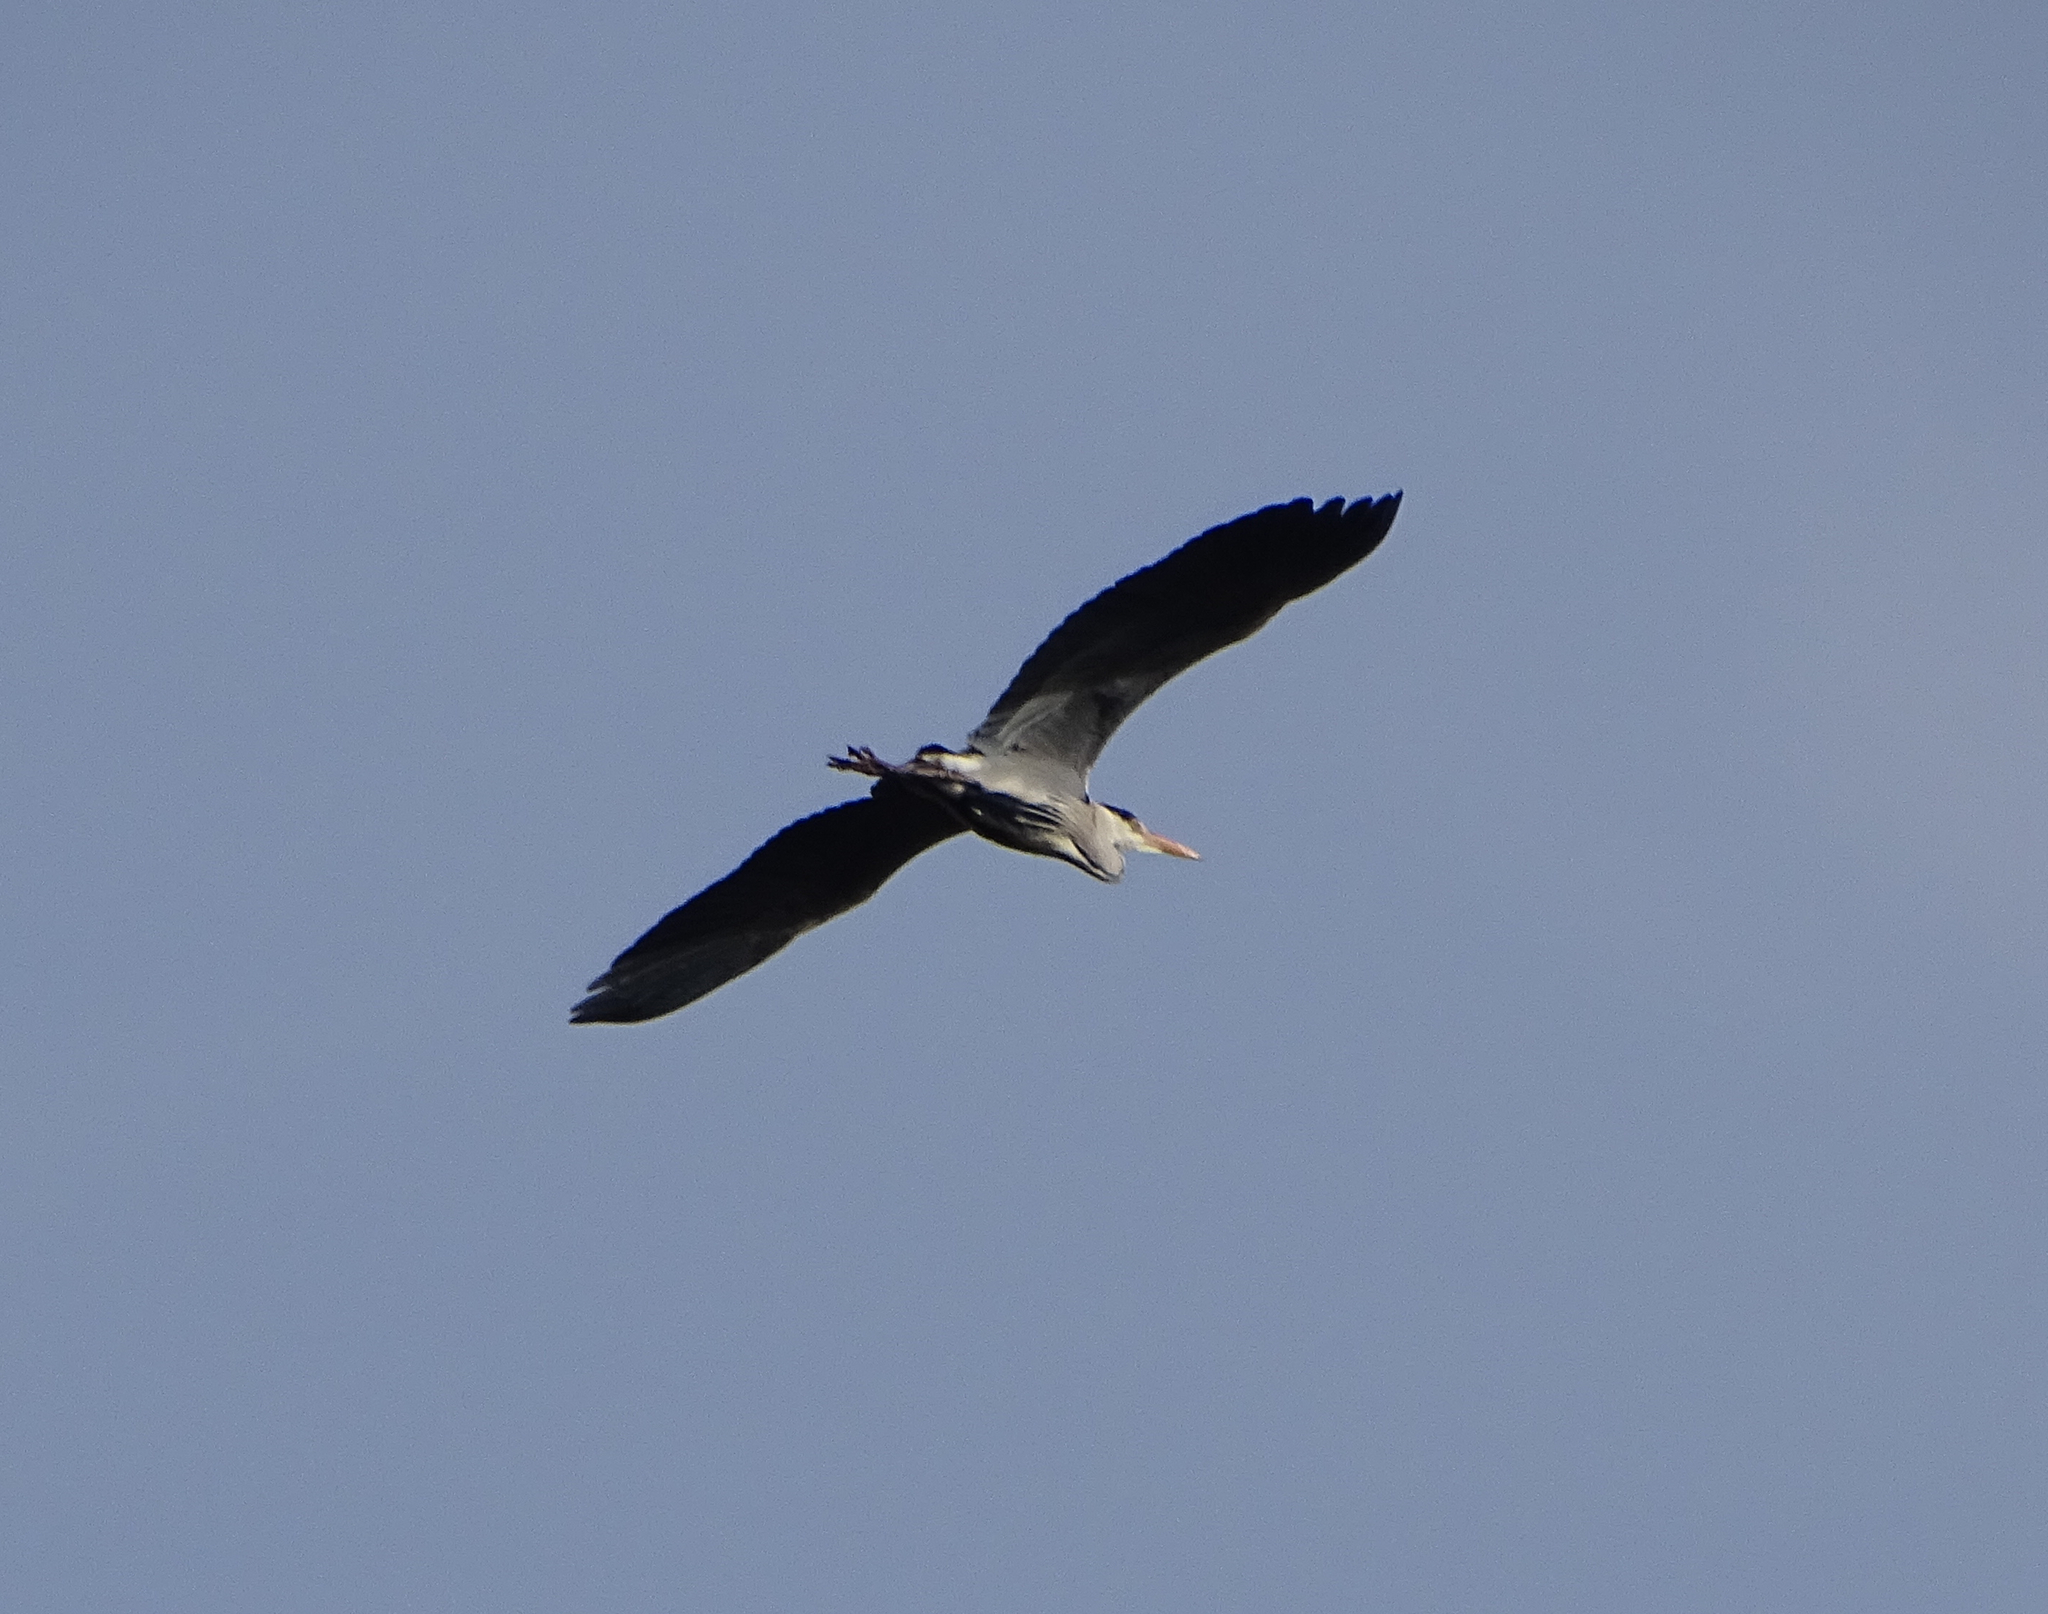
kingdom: Animalia
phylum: Chordata
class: Aves
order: Pelecaniformes
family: Ardeidae
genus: Ardea
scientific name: Ardea cinerea
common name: Grey heron
